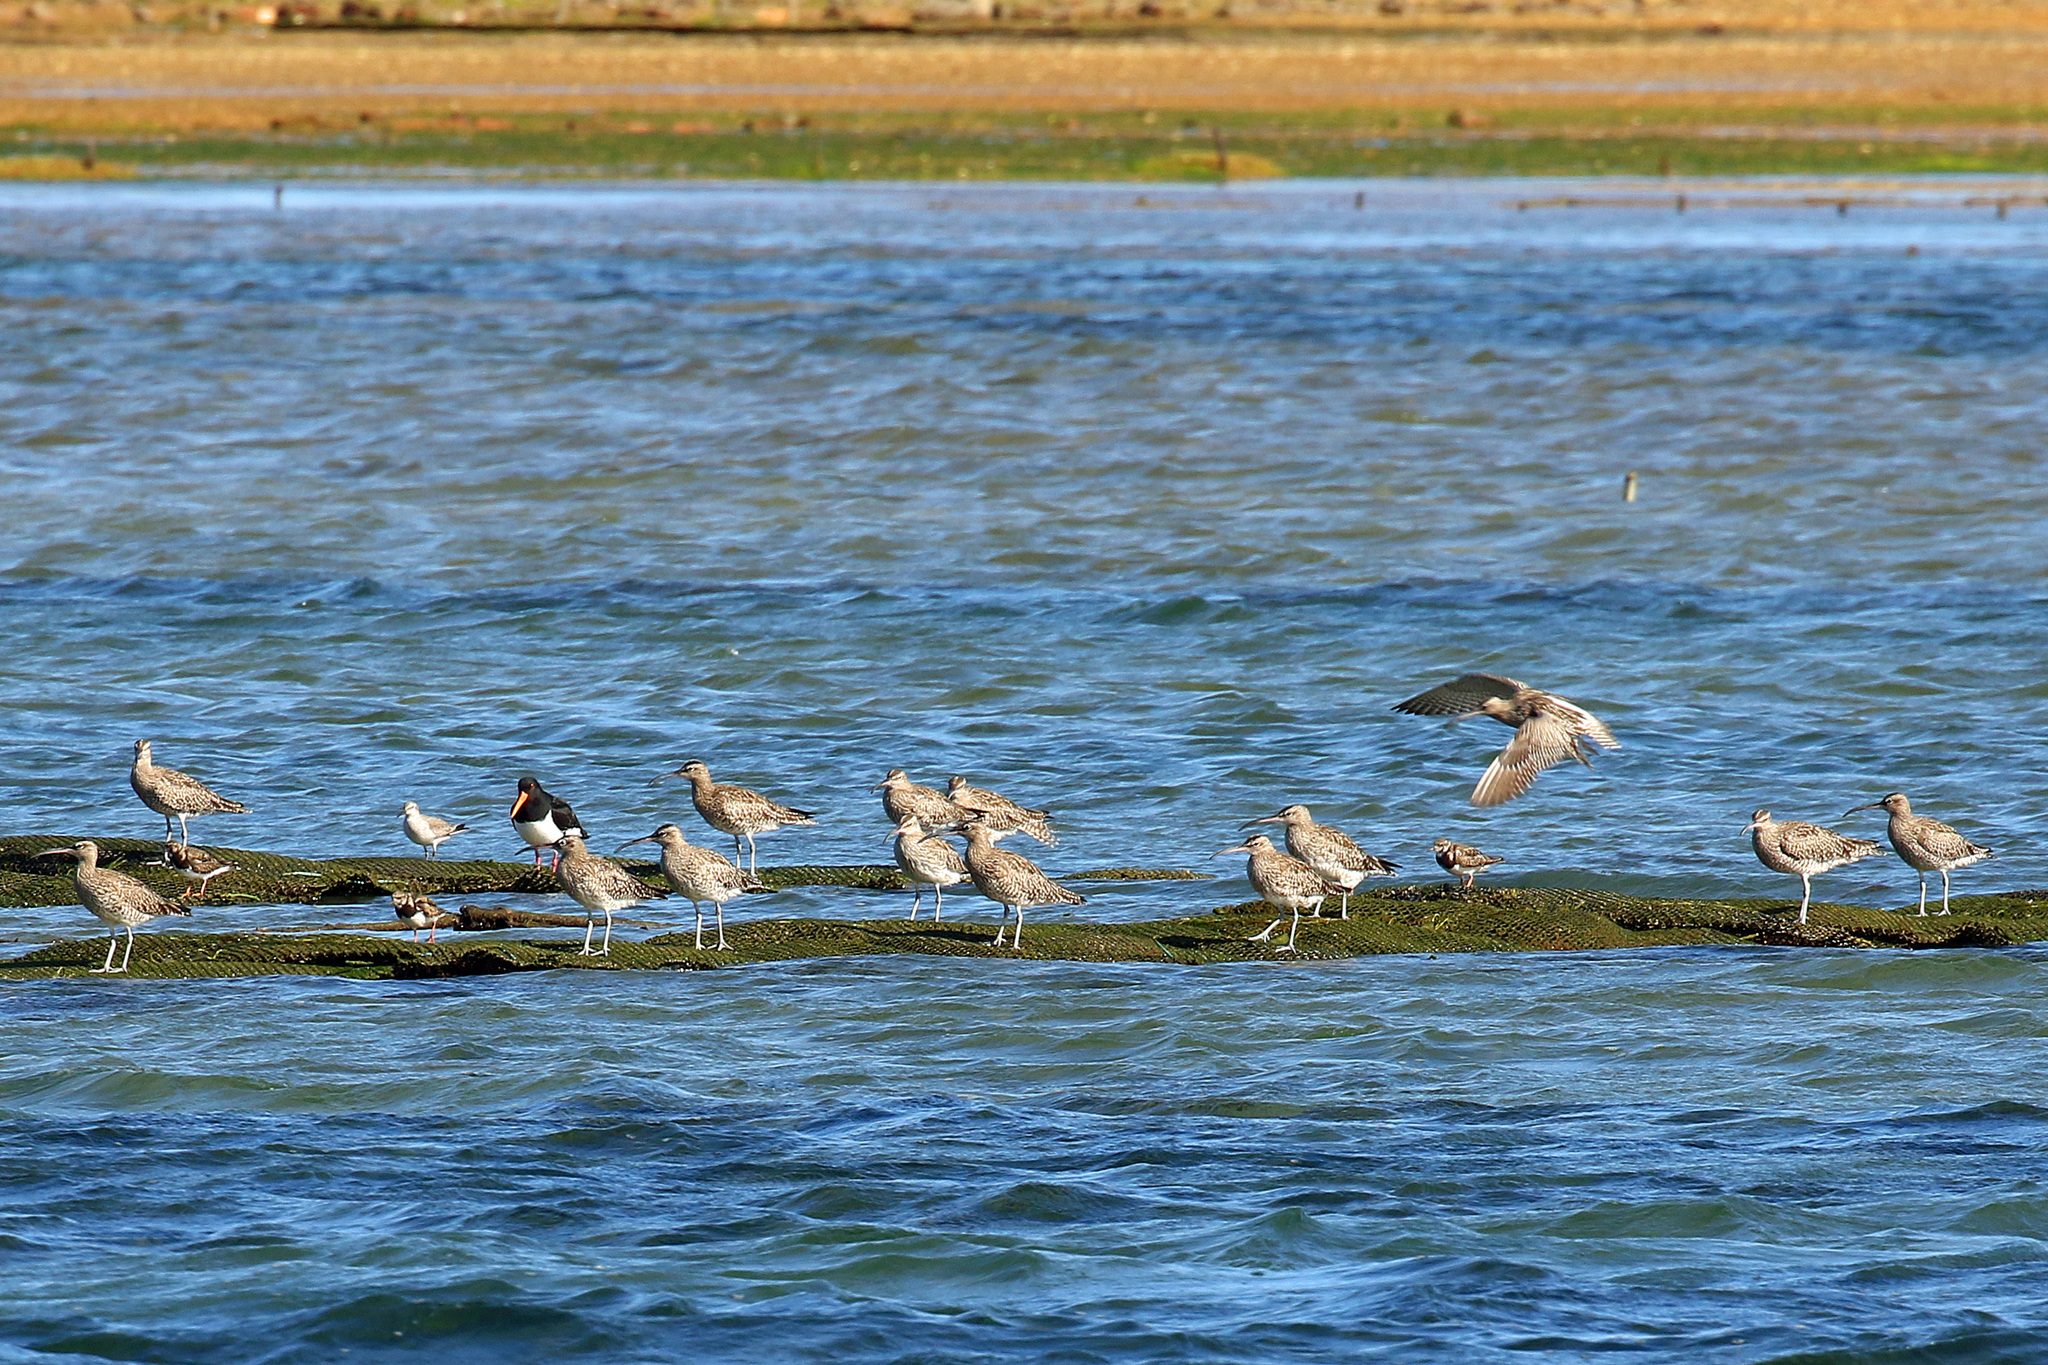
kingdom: Animalia
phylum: Chordata
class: Aves
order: Charadriiformes
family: Scolopacidae
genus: Numenius
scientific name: Numenius phaeopus
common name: Whimbrel
